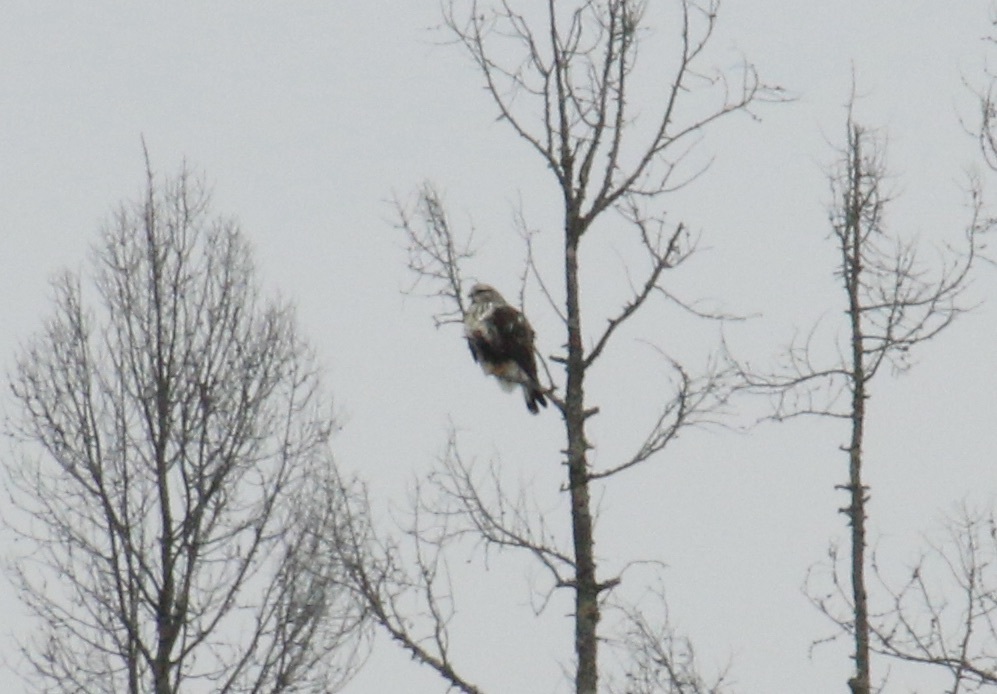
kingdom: Animalia
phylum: Chordata
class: Aves
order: Accipitriformes
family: Accipitridae
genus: Buteo
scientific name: Buteo lagopus
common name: Rough-legged buzzard
